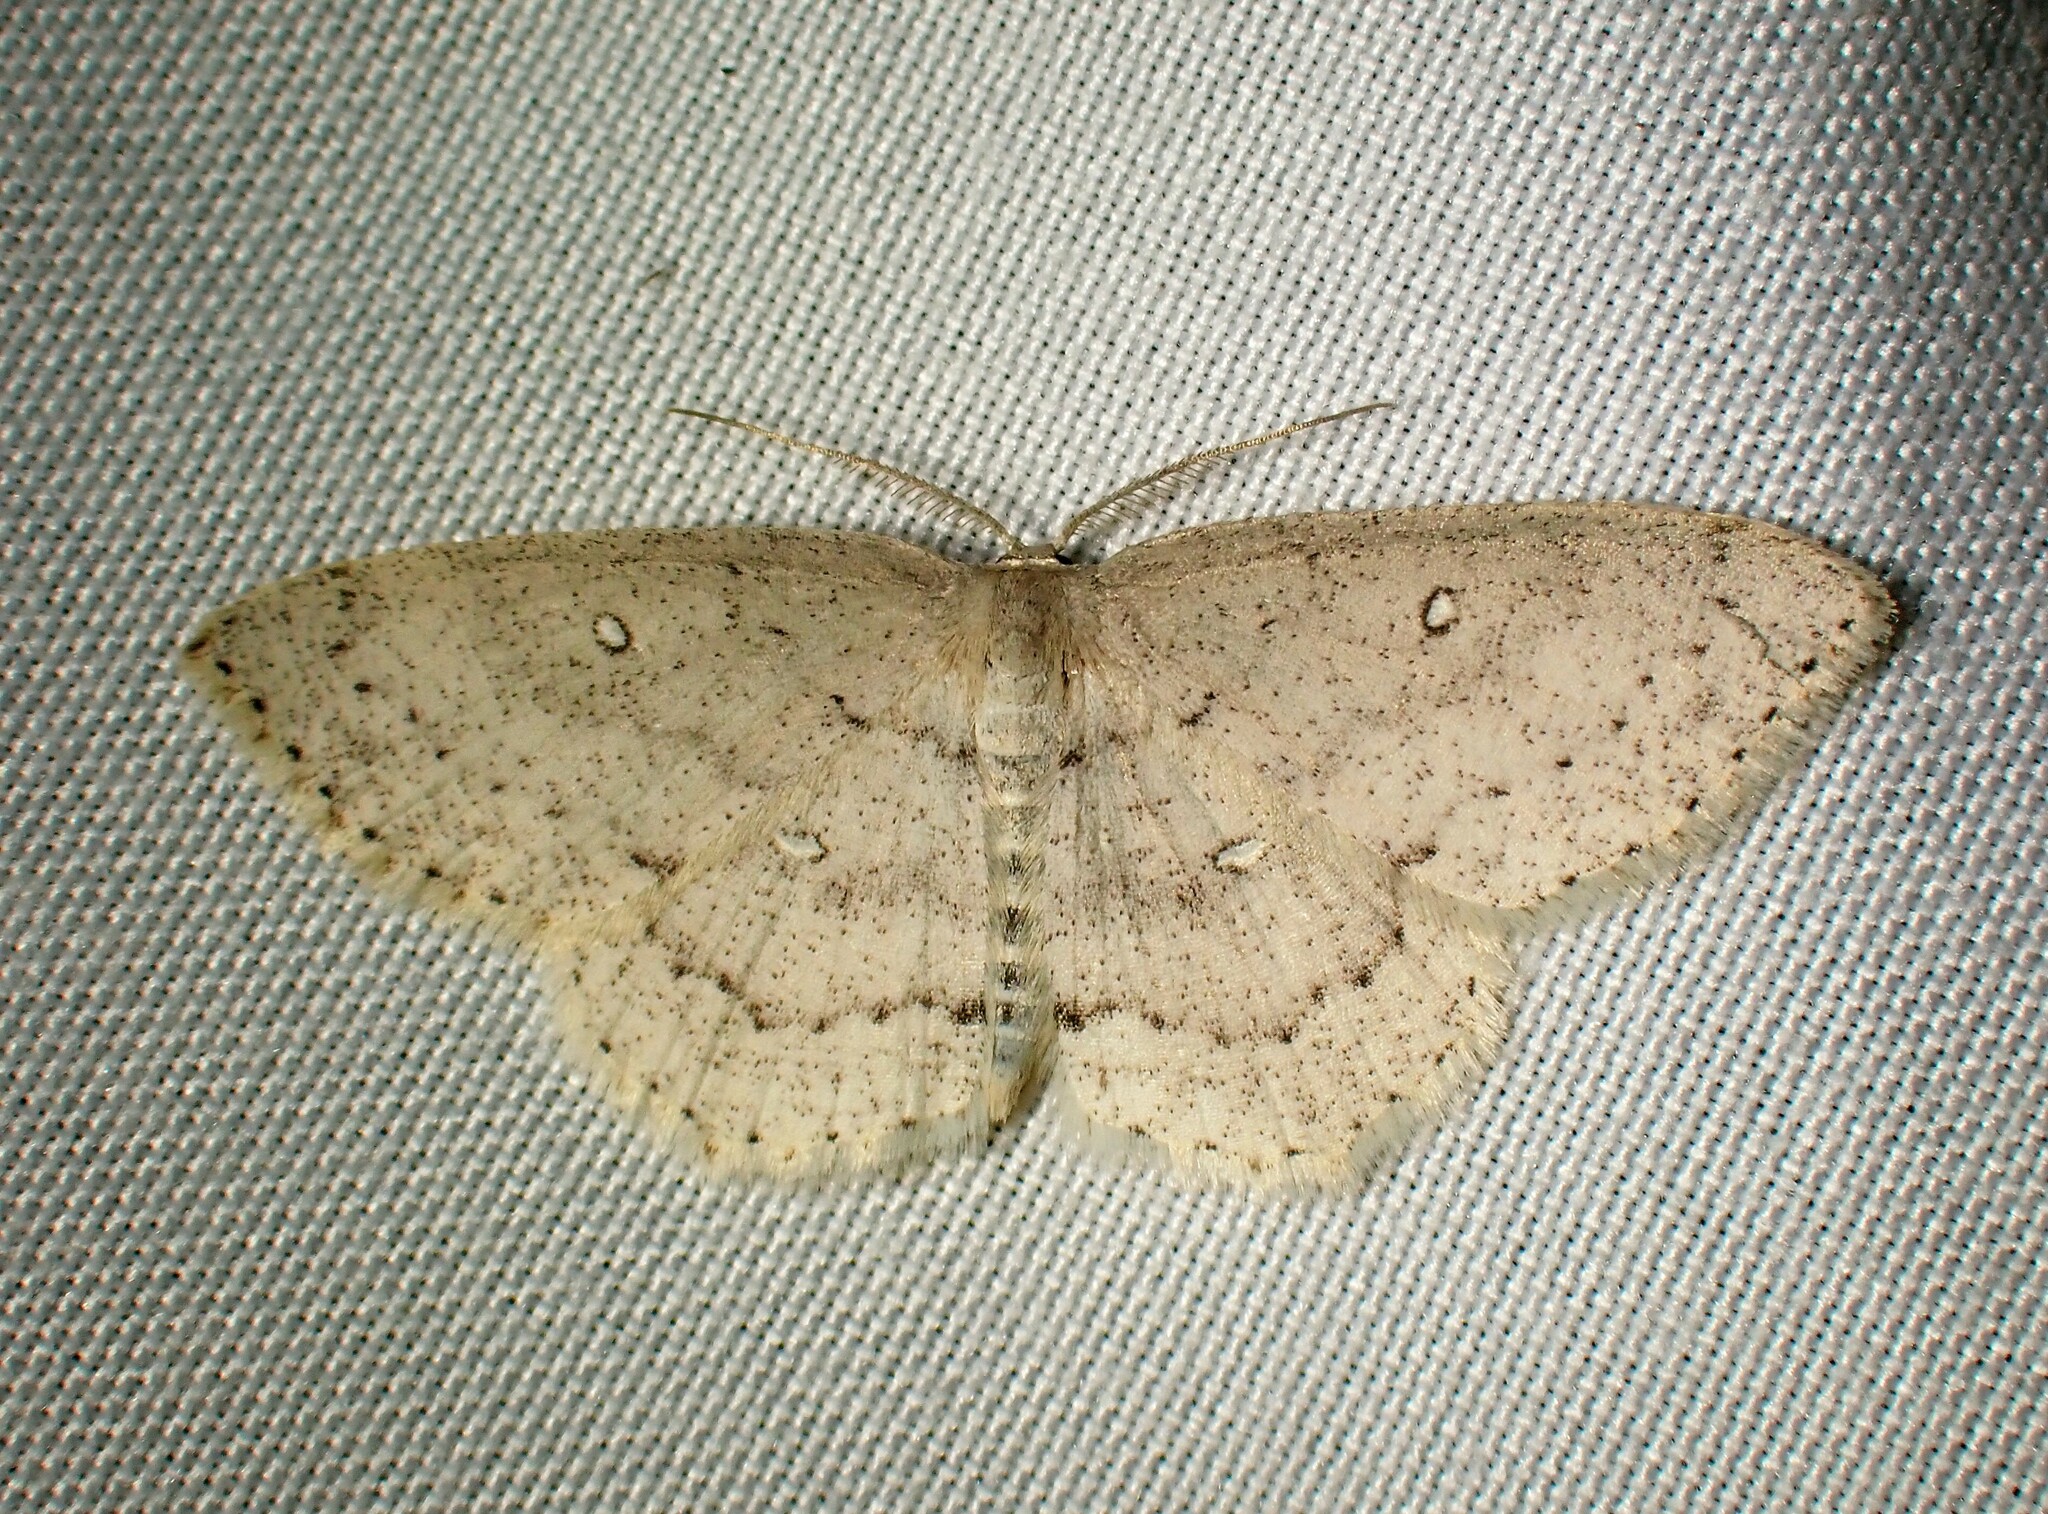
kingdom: Animalia
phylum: Arthropoda
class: Insecta
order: Lepidoptera
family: Geometridae
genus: Cyclophora
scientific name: Cyclophora pendulinaria
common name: Sweet fern geometer
